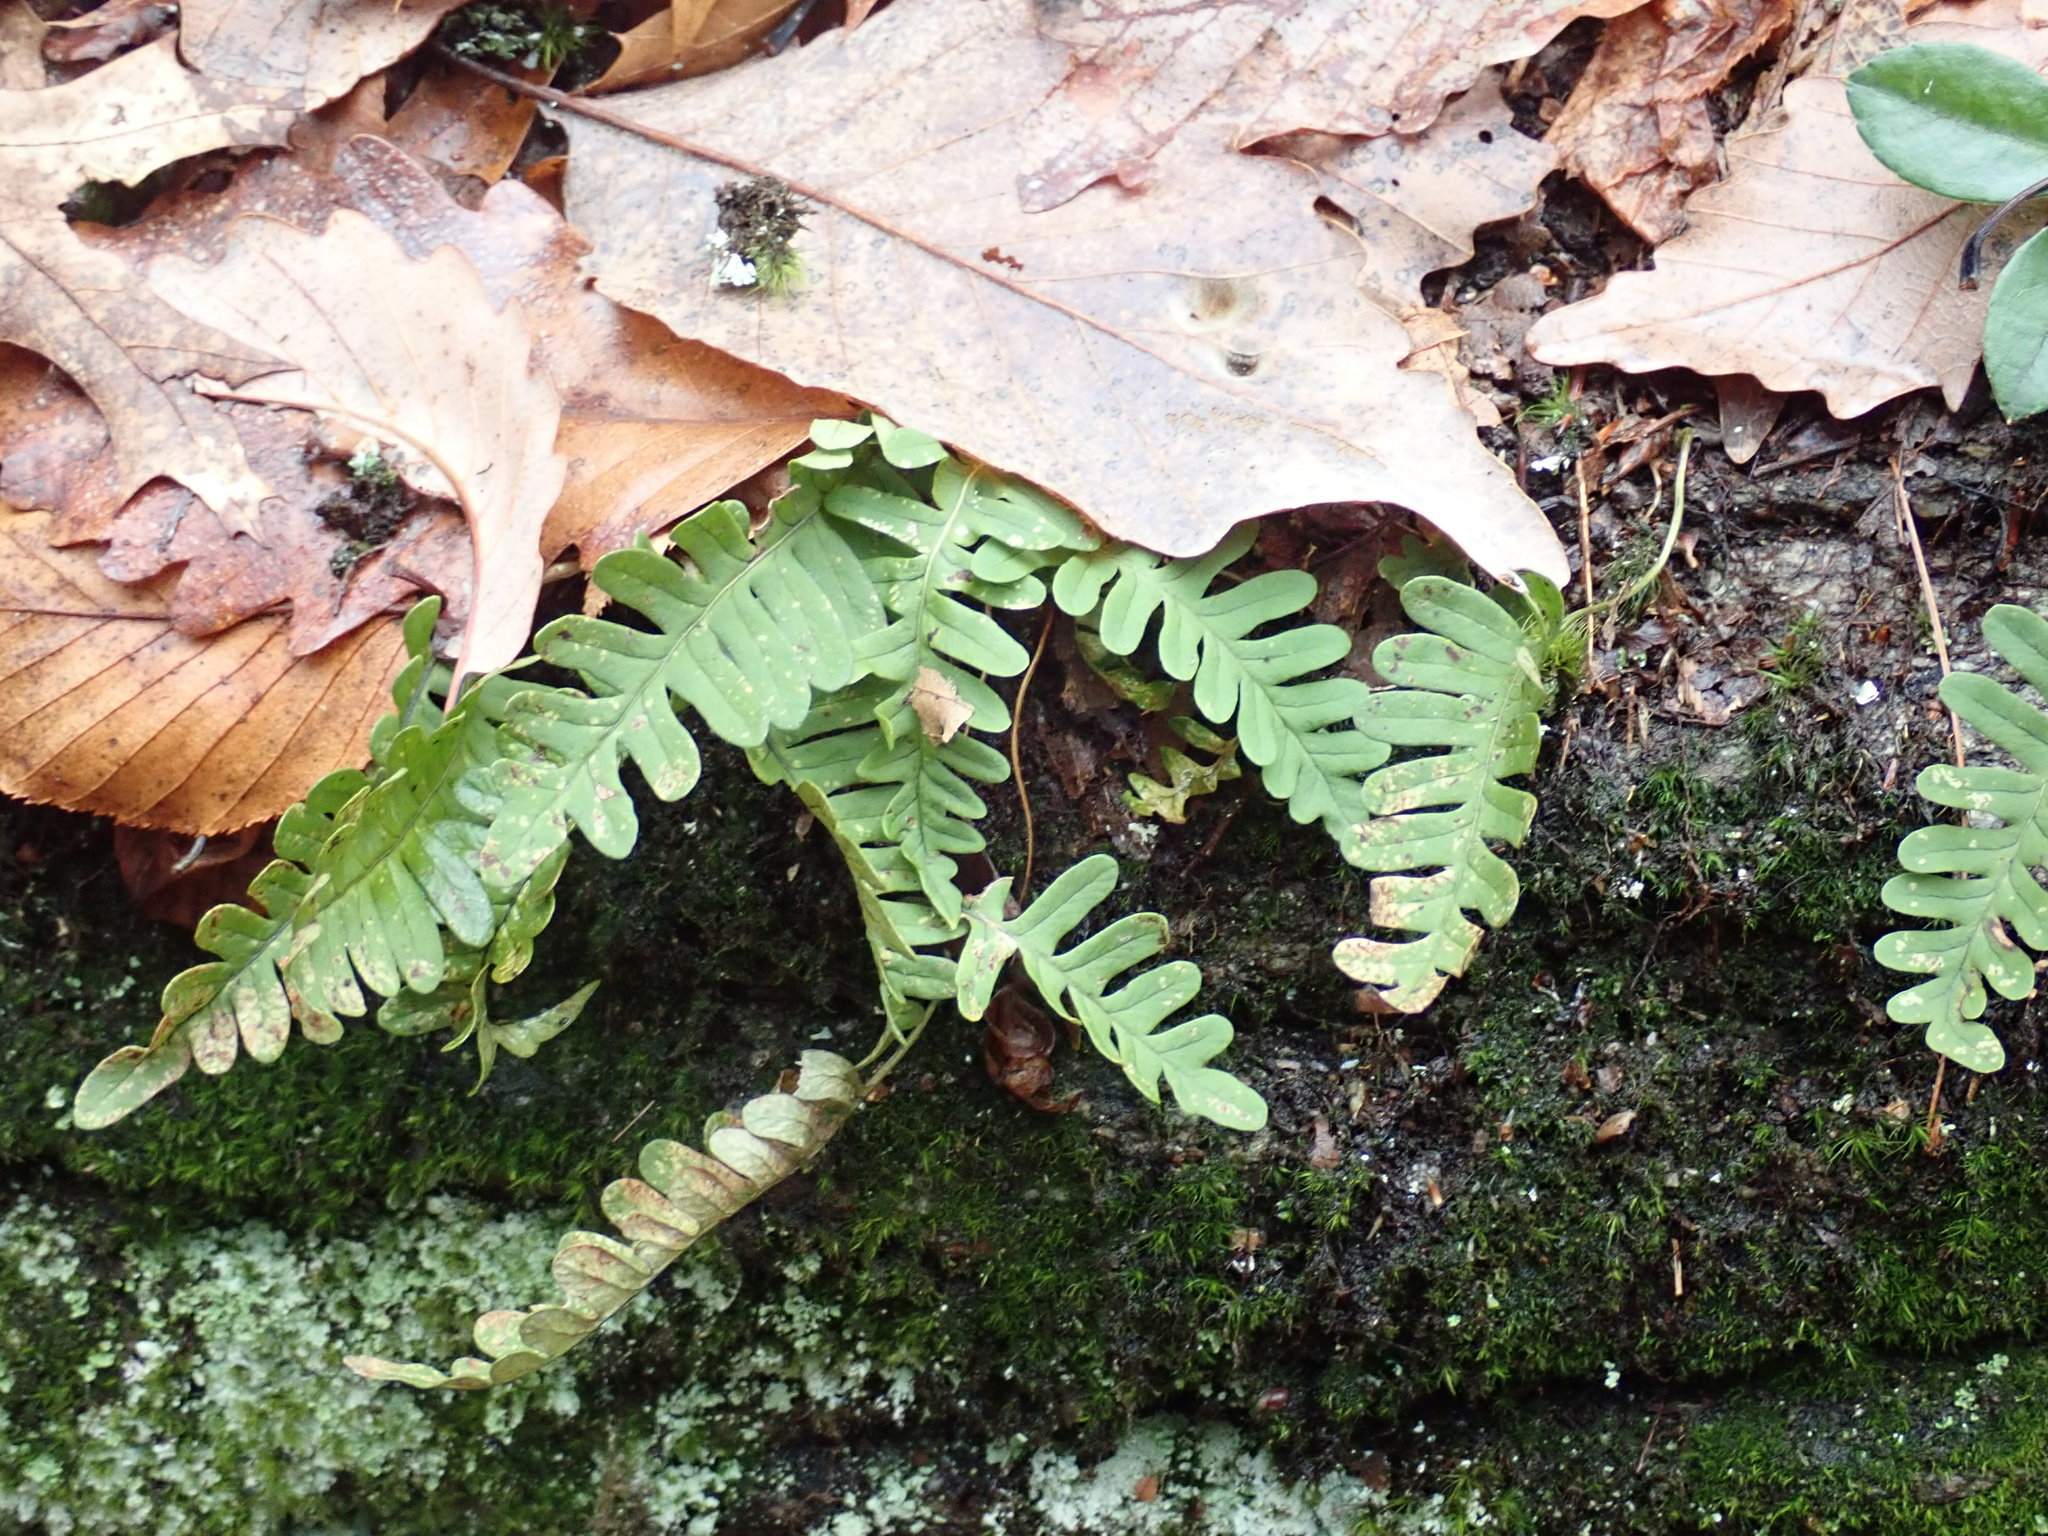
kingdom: Plantae
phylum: Tracheophyta
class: Polypodiopsida
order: Polypodiales
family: Polypodiaceae
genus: Polypodium
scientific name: Polypodium
